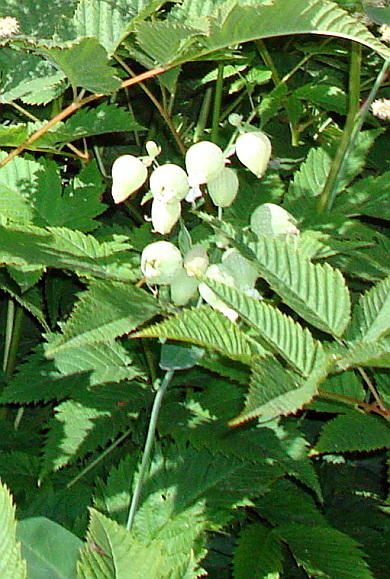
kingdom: Plantae
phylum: Tracheophyta
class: Magnoliopsida
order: Caryophyllales
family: Caryophyllaceae
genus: Silene
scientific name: Silene vulgaris
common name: Bladder campion
